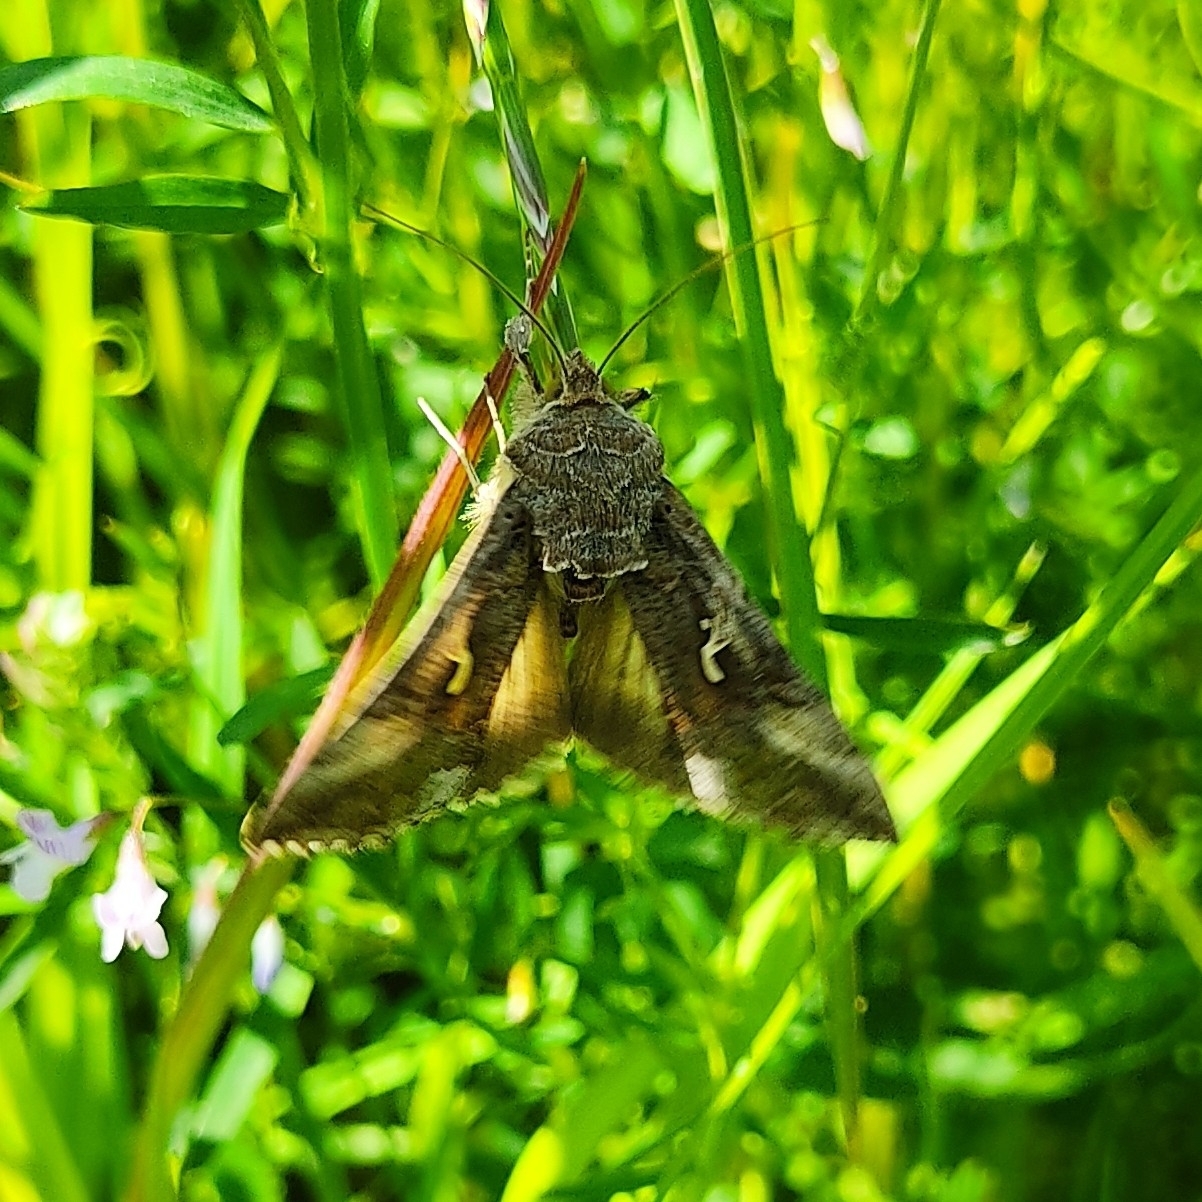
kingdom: Animalia
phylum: Arthropoda
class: Insecta
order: Lepidoptera
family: Noctuidae
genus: Autographa
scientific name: Autographa gamma
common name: Silver y
